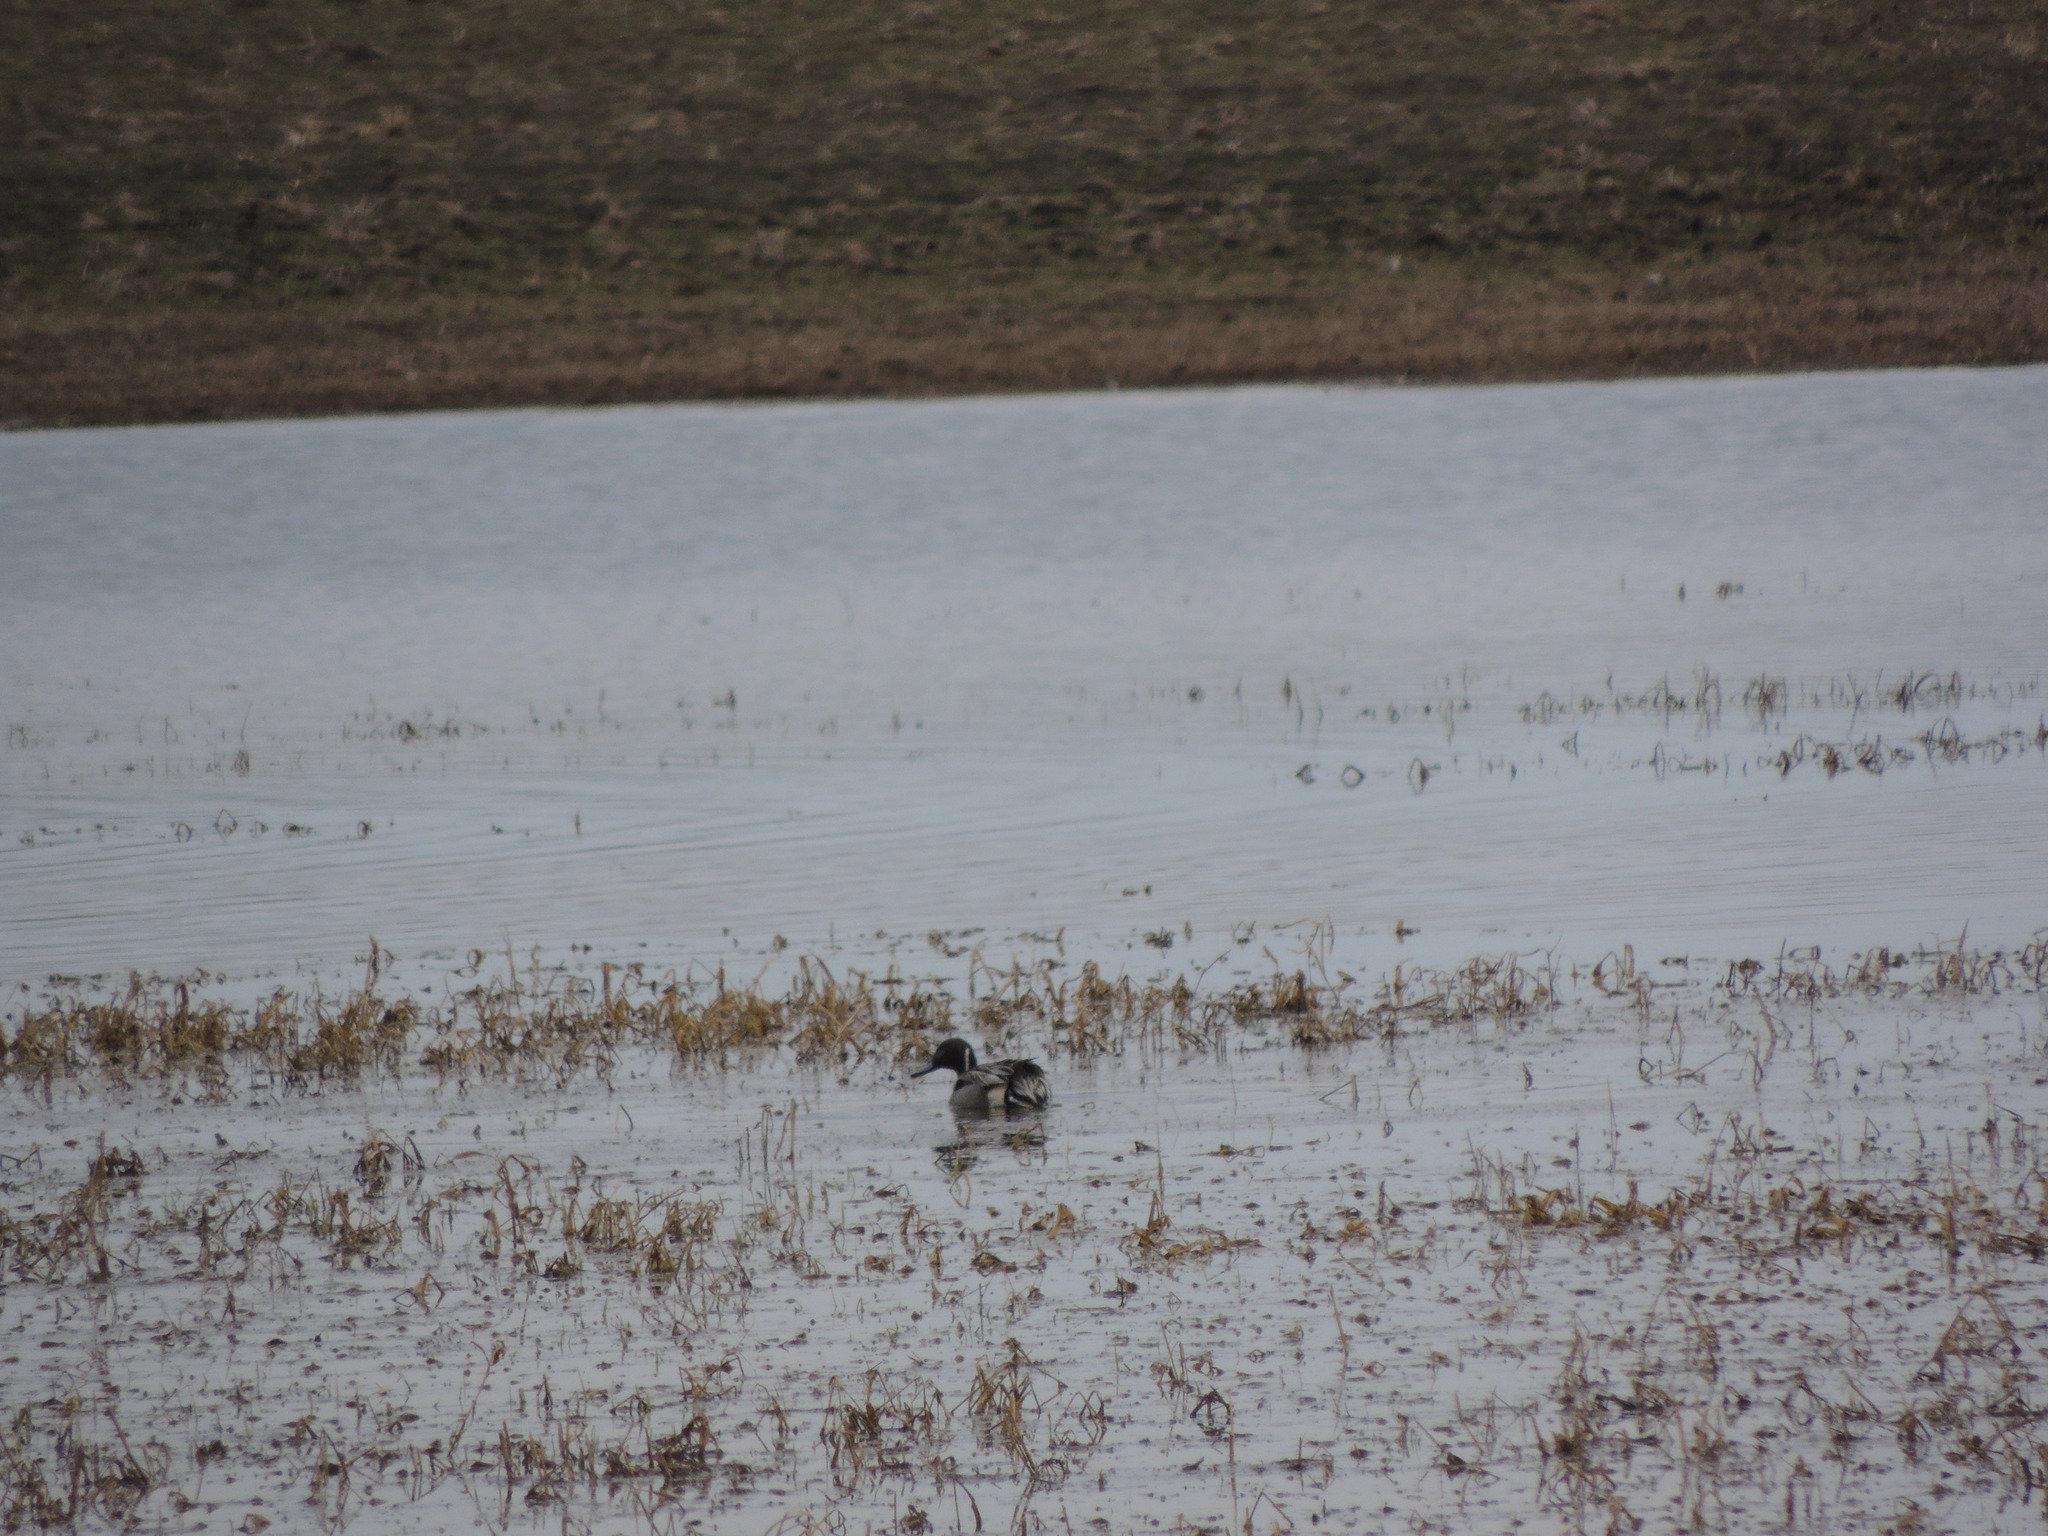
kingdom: Animalia
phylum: Chordata
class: Aves
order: Anseriformes
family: Anatidae
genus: Anas
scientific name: Anas acuta
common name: Northern pintail
